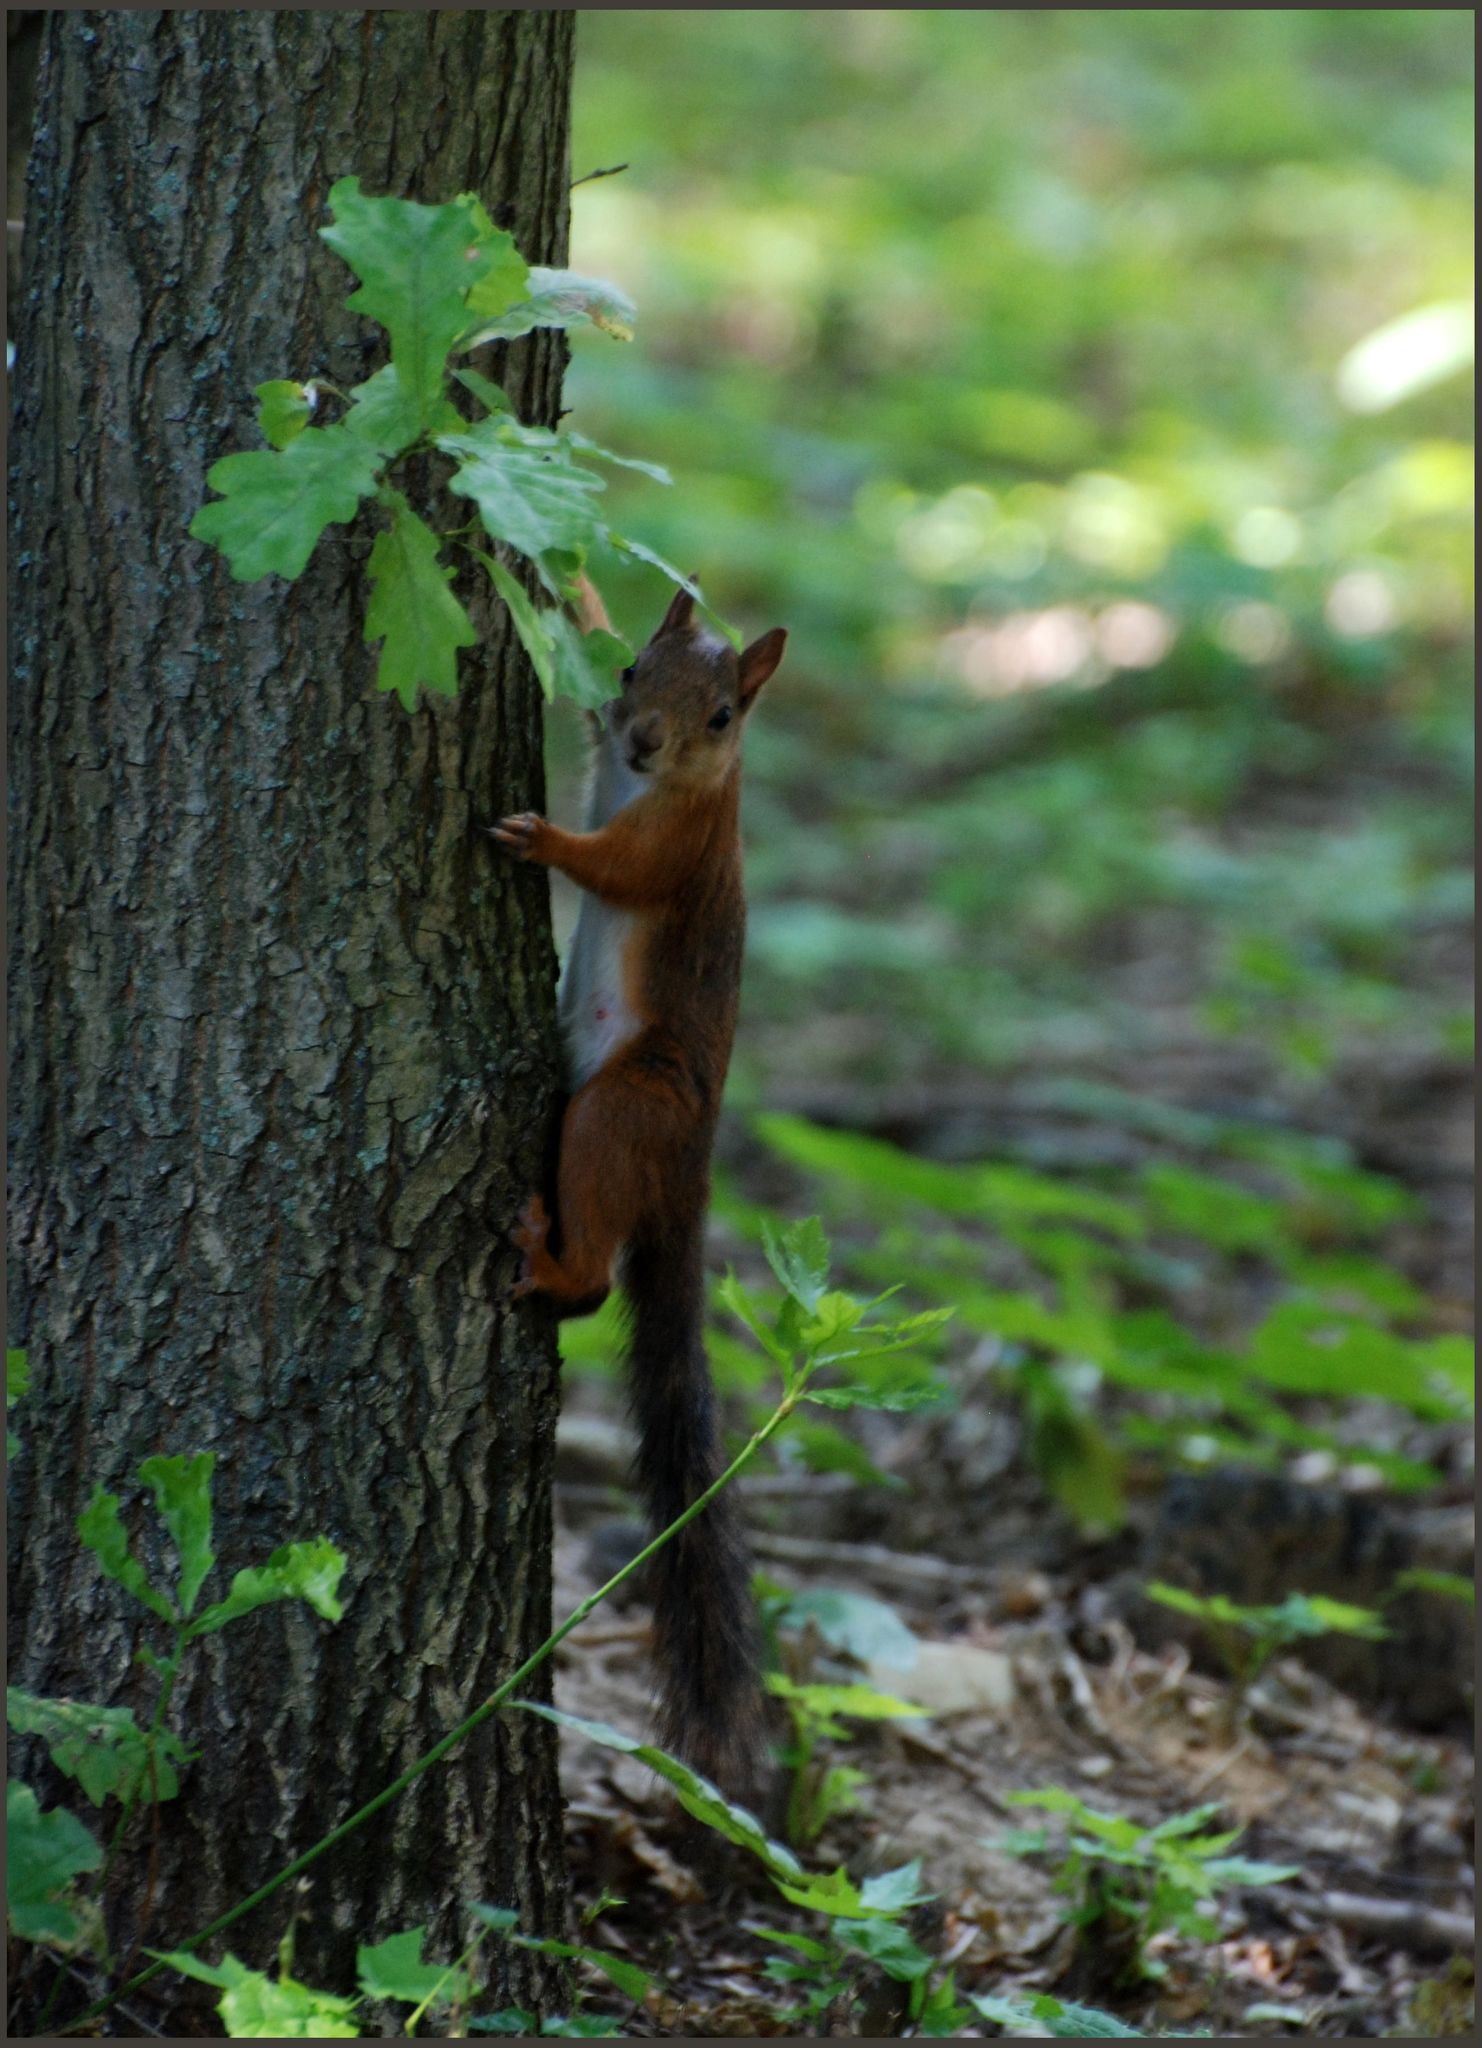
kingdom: Animalia
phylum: Chordata
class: Mammalia
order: Rodentia
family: Sciuridae
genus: Sciurus
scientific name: Sciurus vulgaris
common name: Eurasian red squirrel
